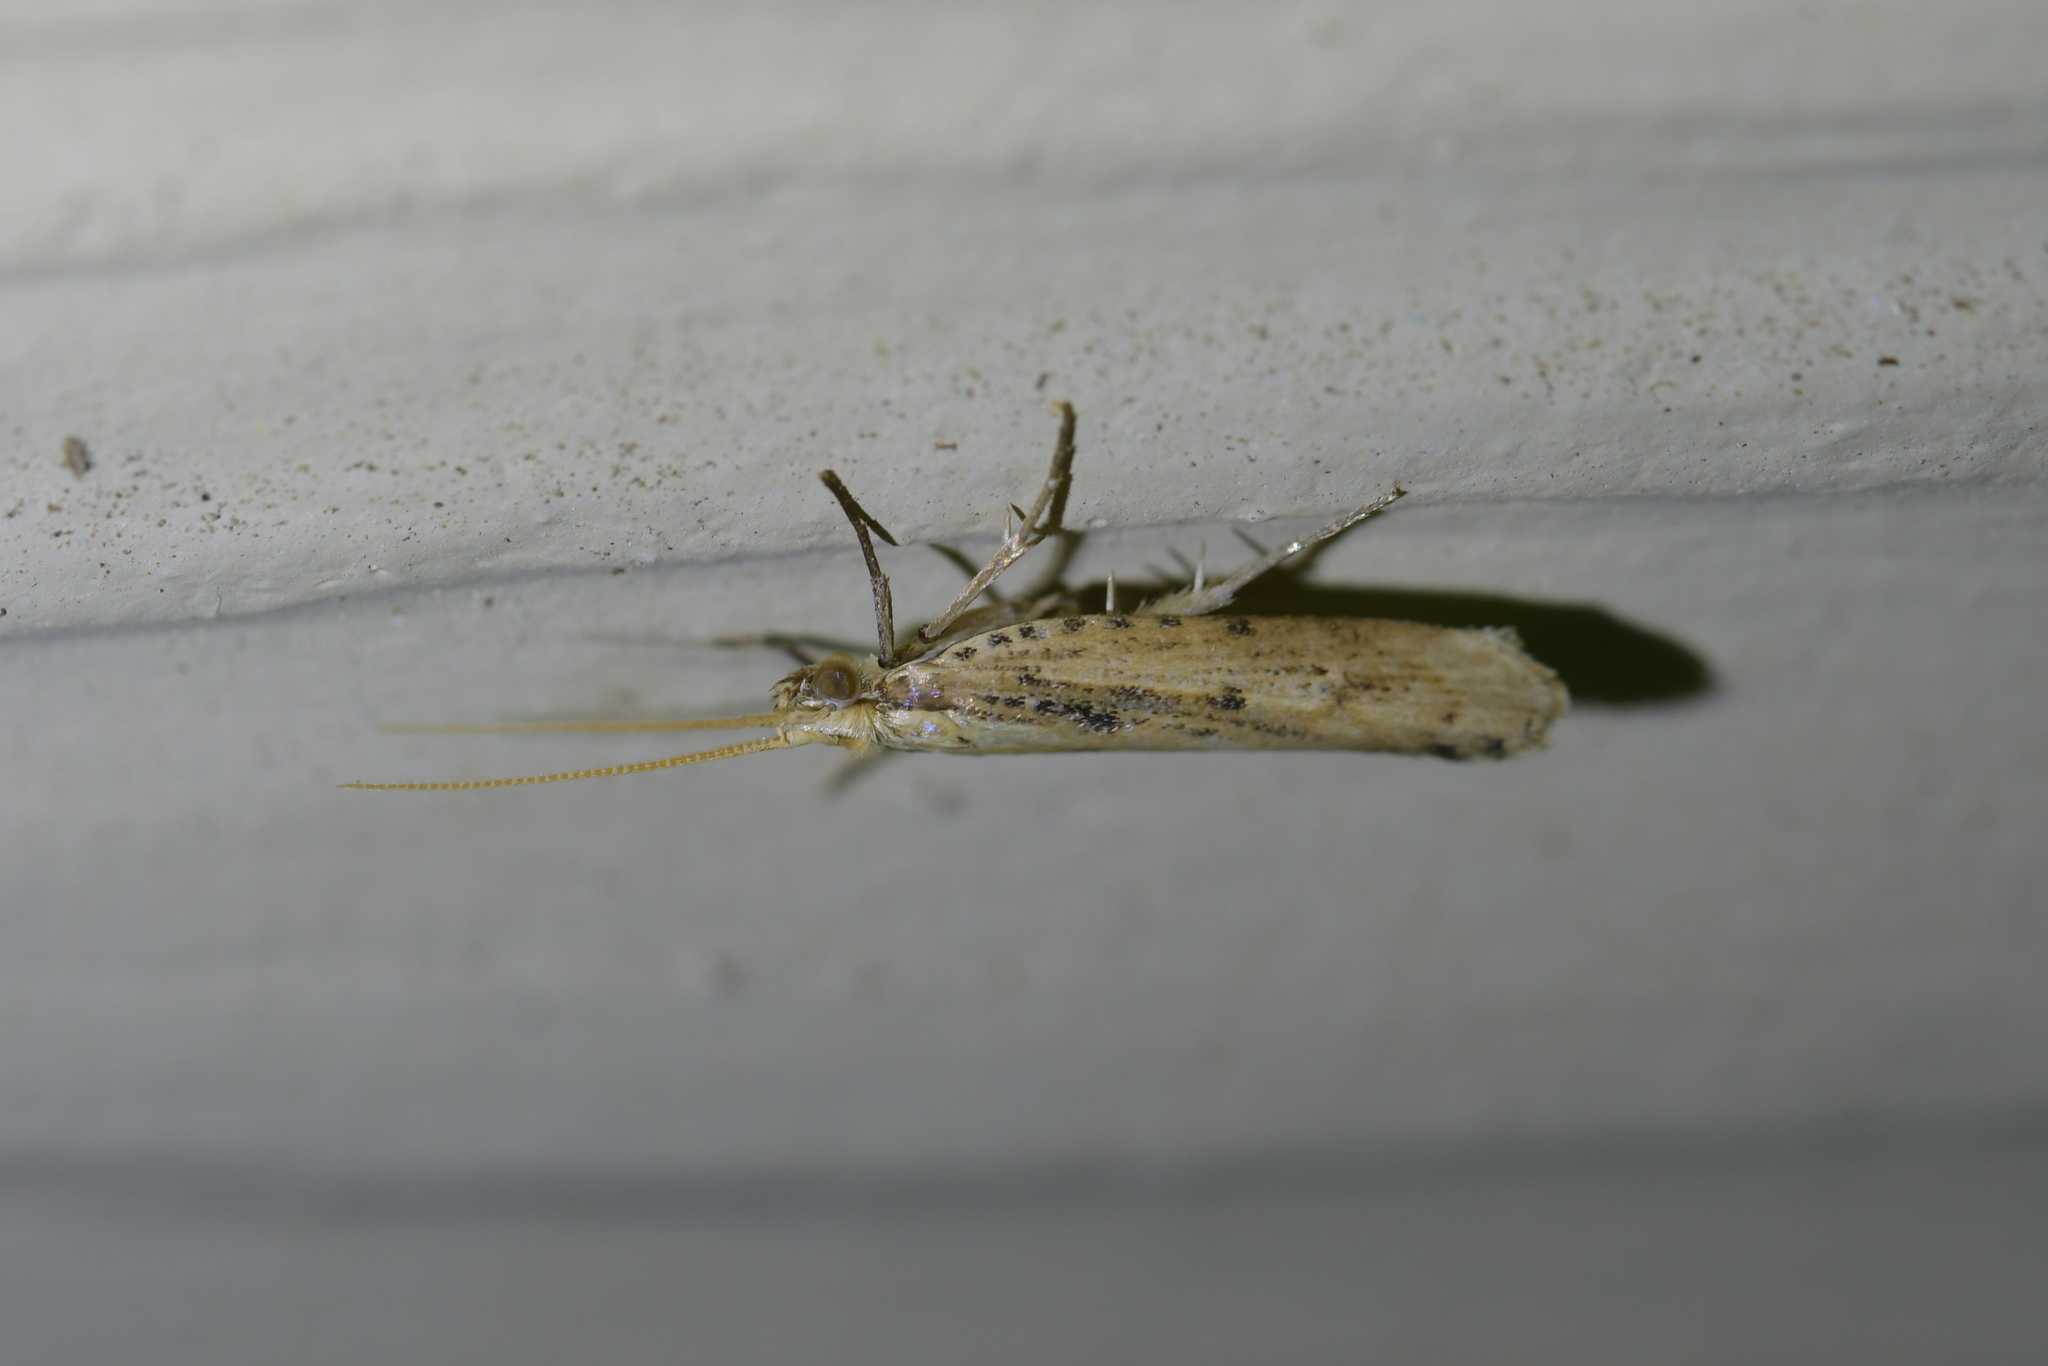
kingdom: Animalia
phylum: Arthropoda
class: Insecta
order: Lepidoptera
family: Glyphipterigidae
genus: Orthenches
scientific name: Orthenches chlorocoma
